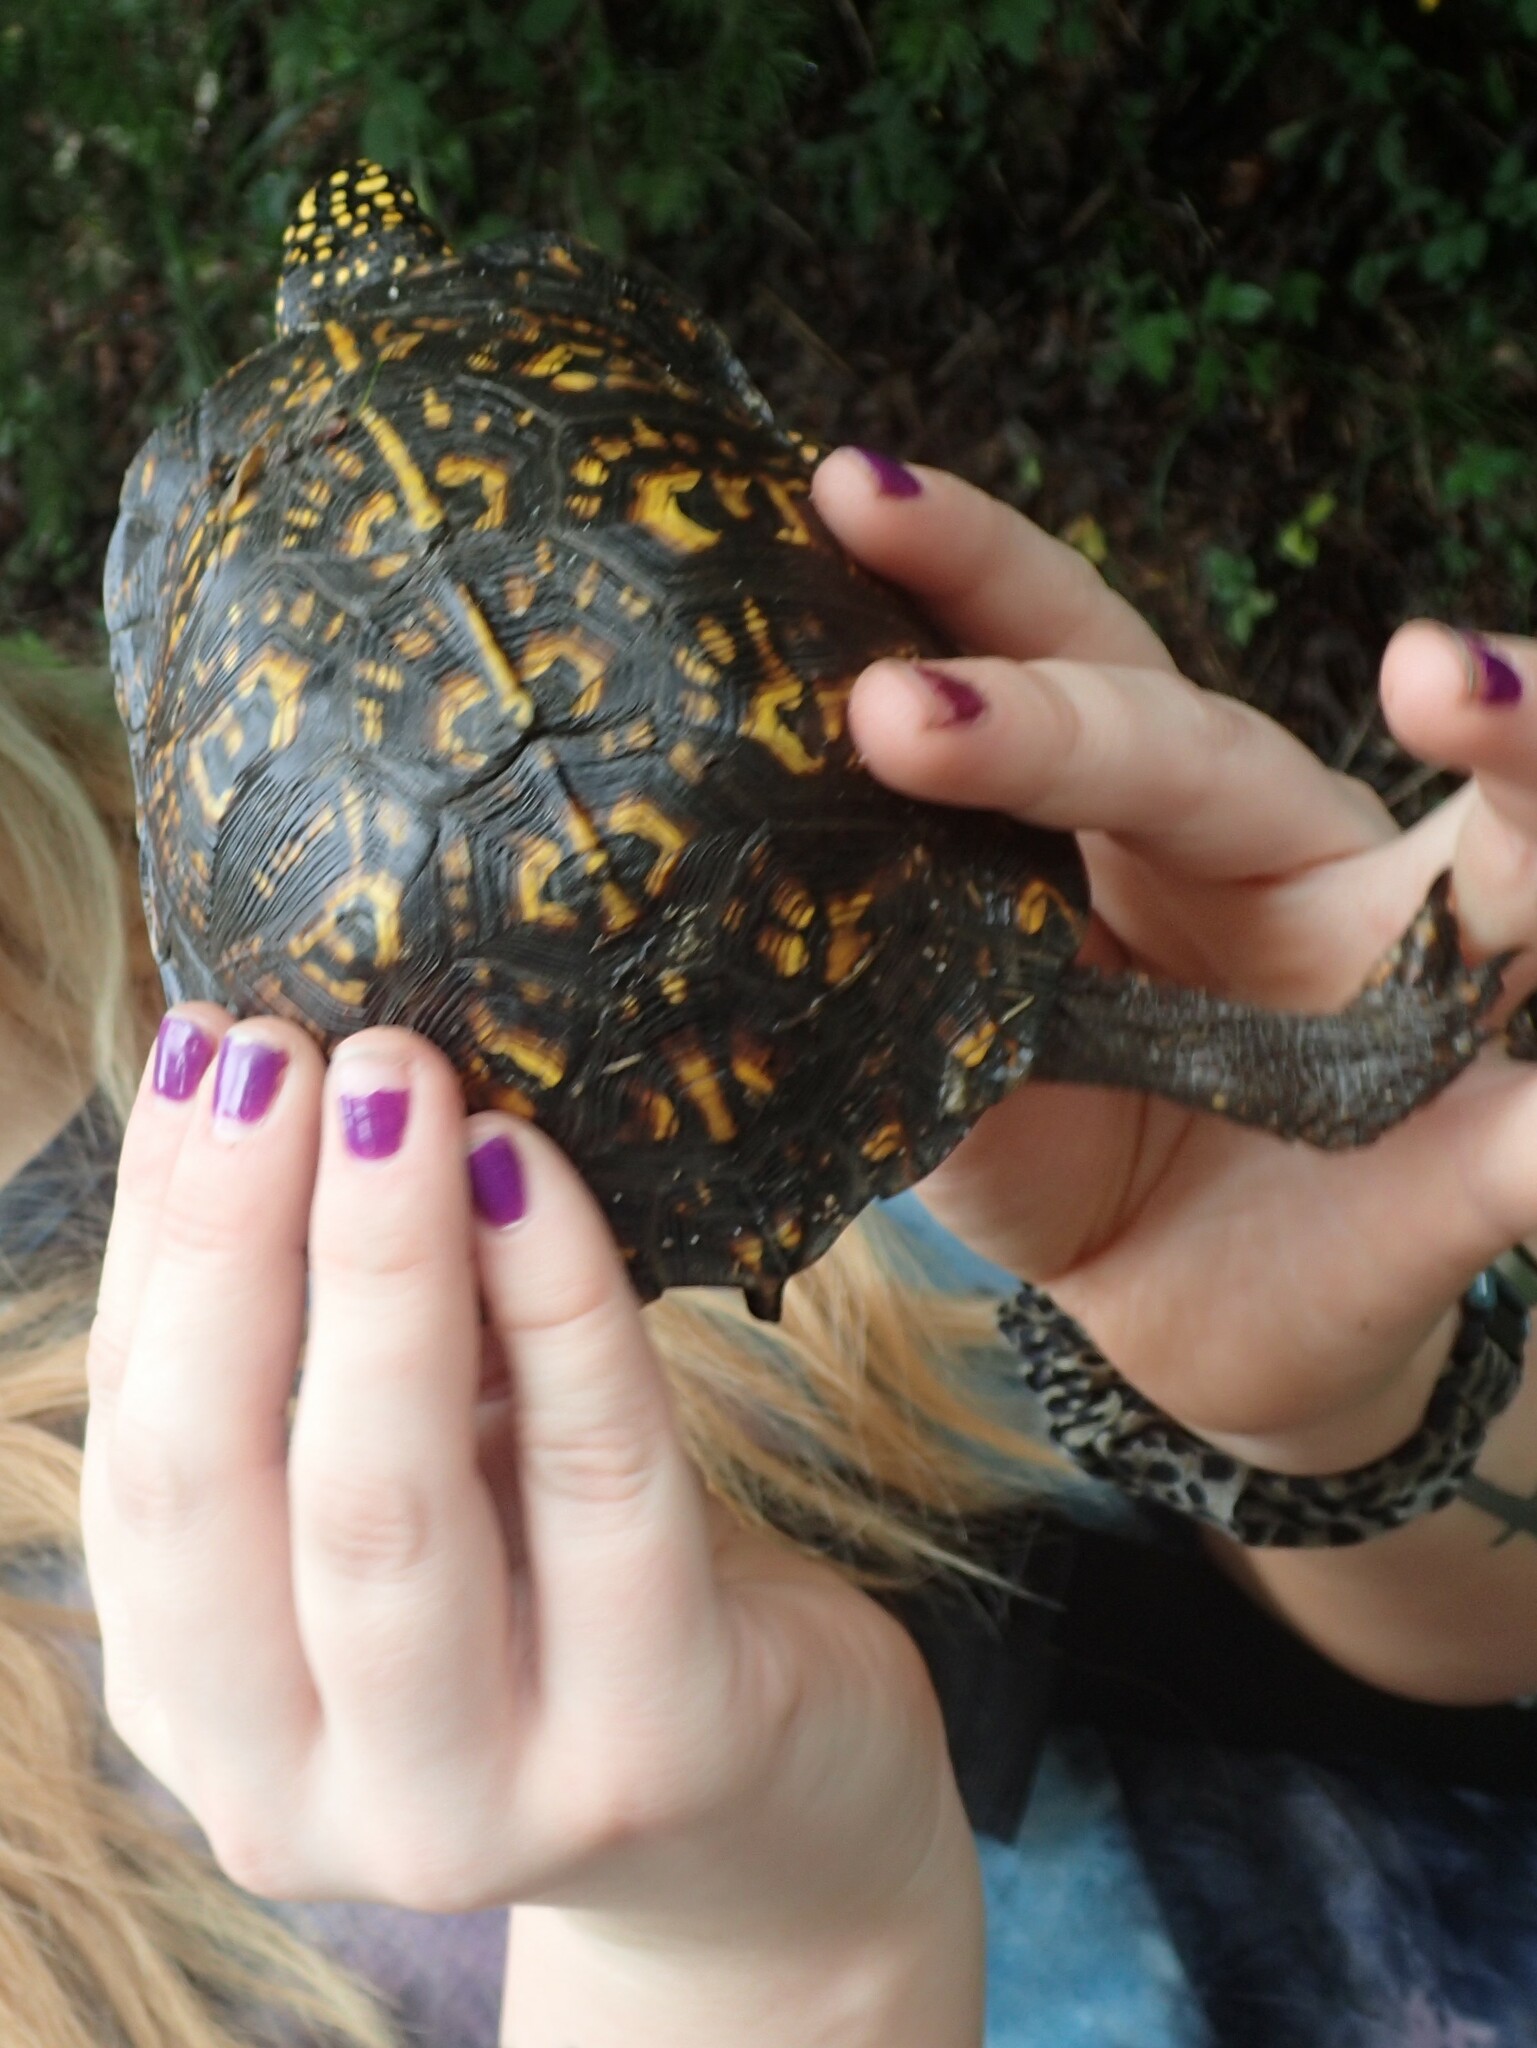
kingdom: Animalia
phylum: Chordata
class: Testudines
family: Emydidae
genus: Terrapene
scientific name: Terrapene carolina
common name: Common box turtle
